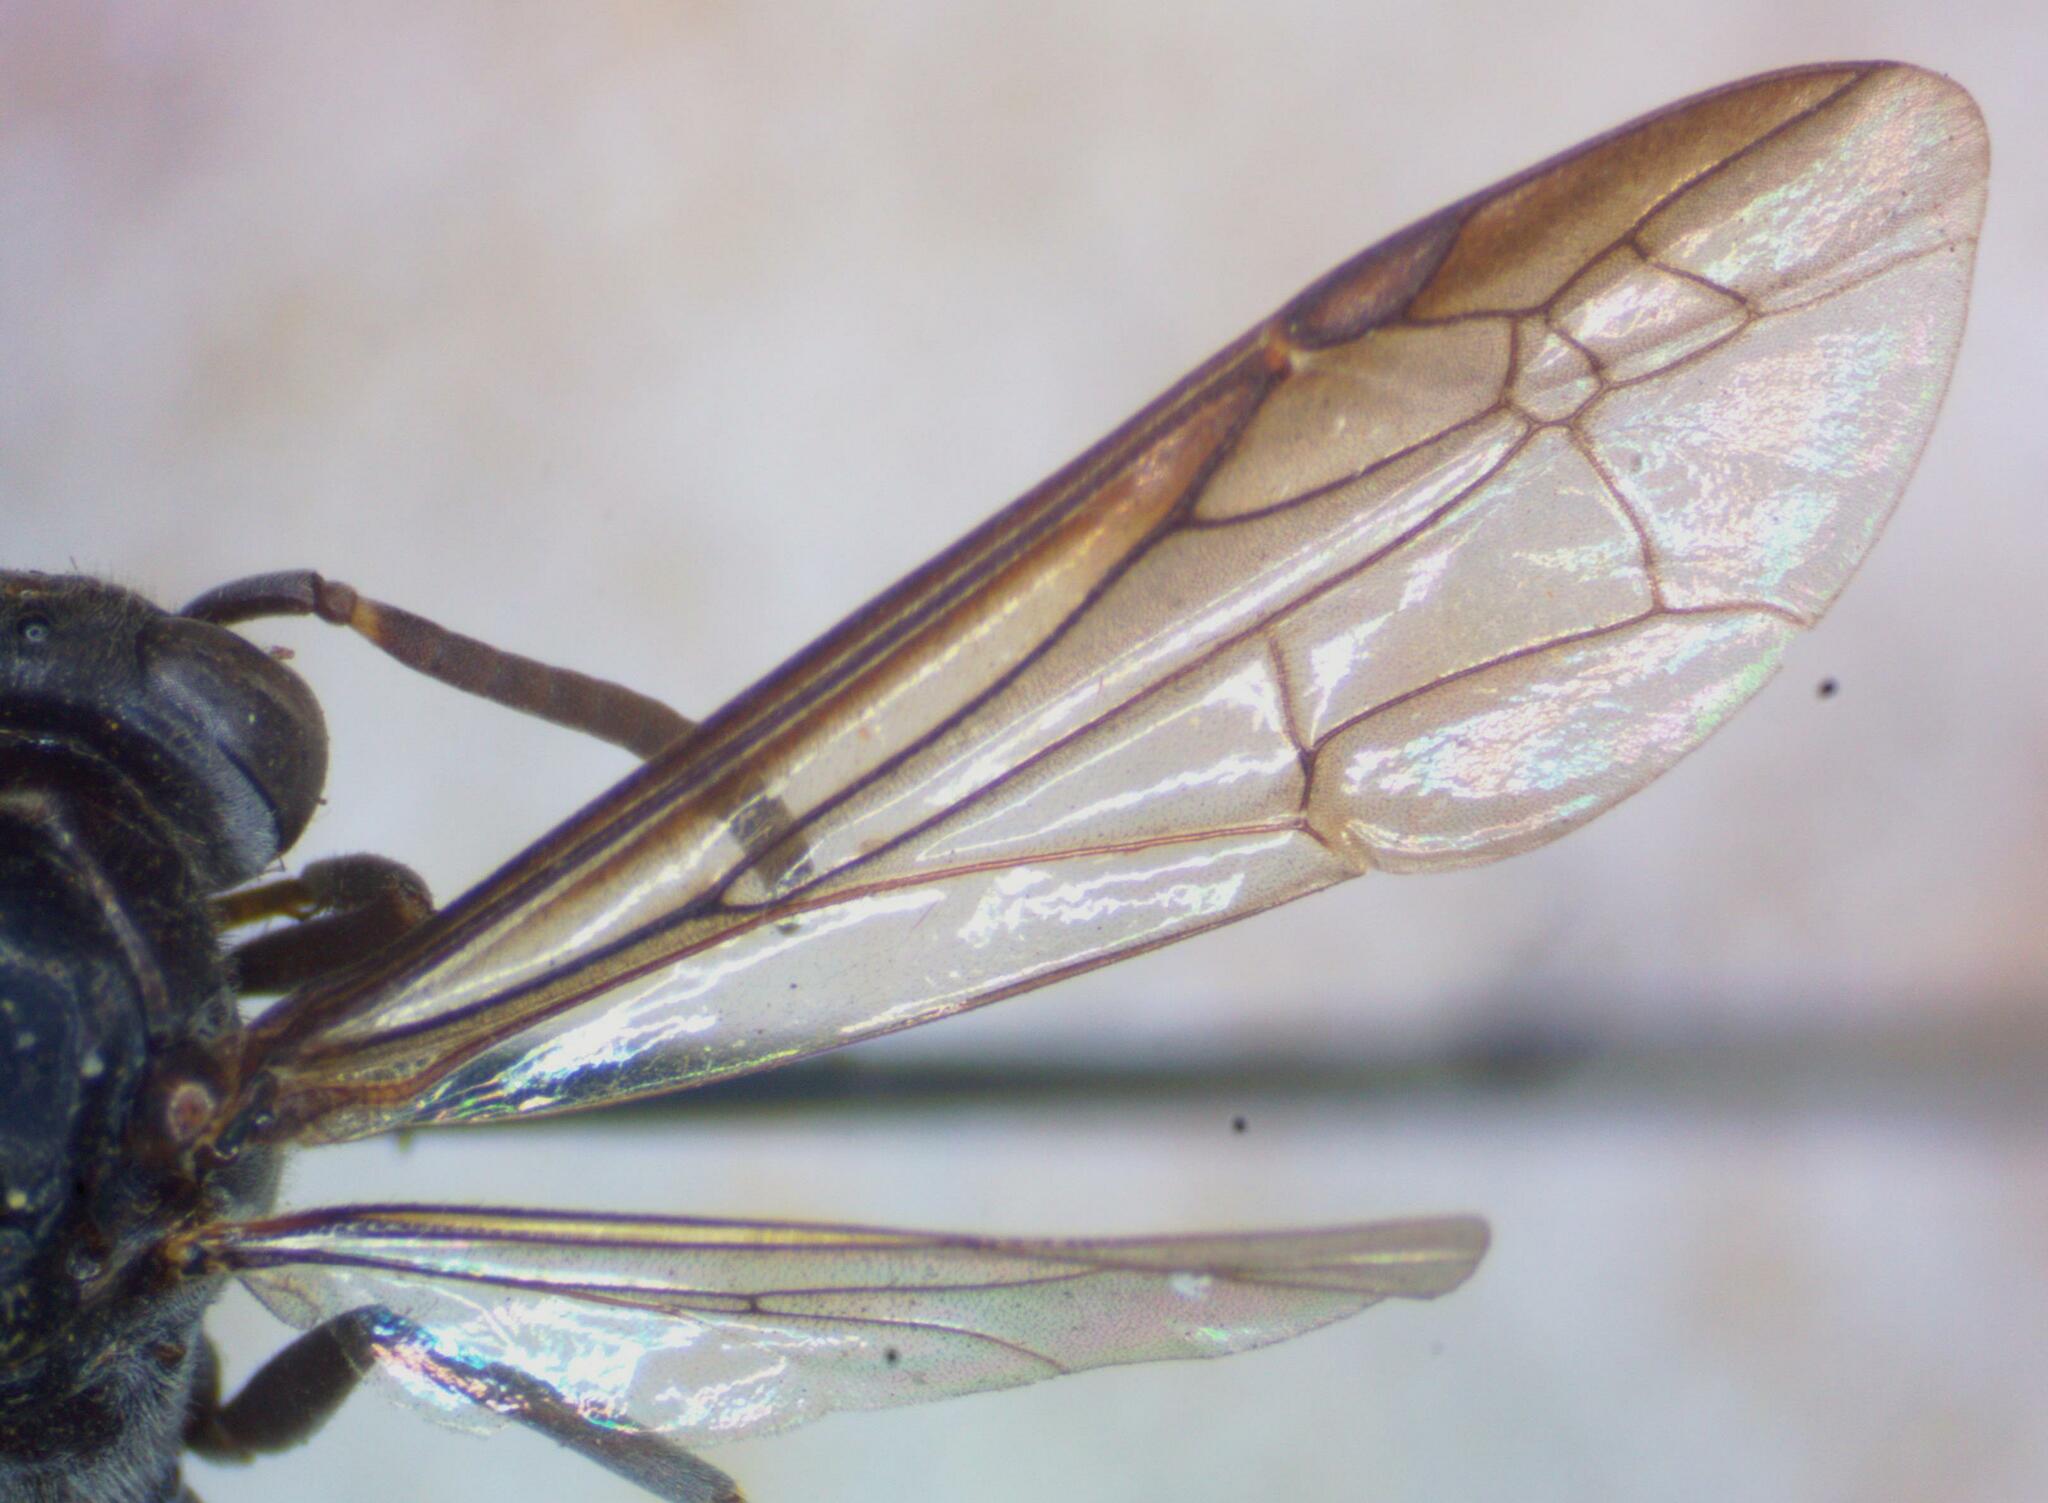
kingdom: Animalia
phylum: Arthropoda
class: Insecta
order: Hymenoptera
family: Eumenidae
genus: Polybia
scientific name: Polybia raui
